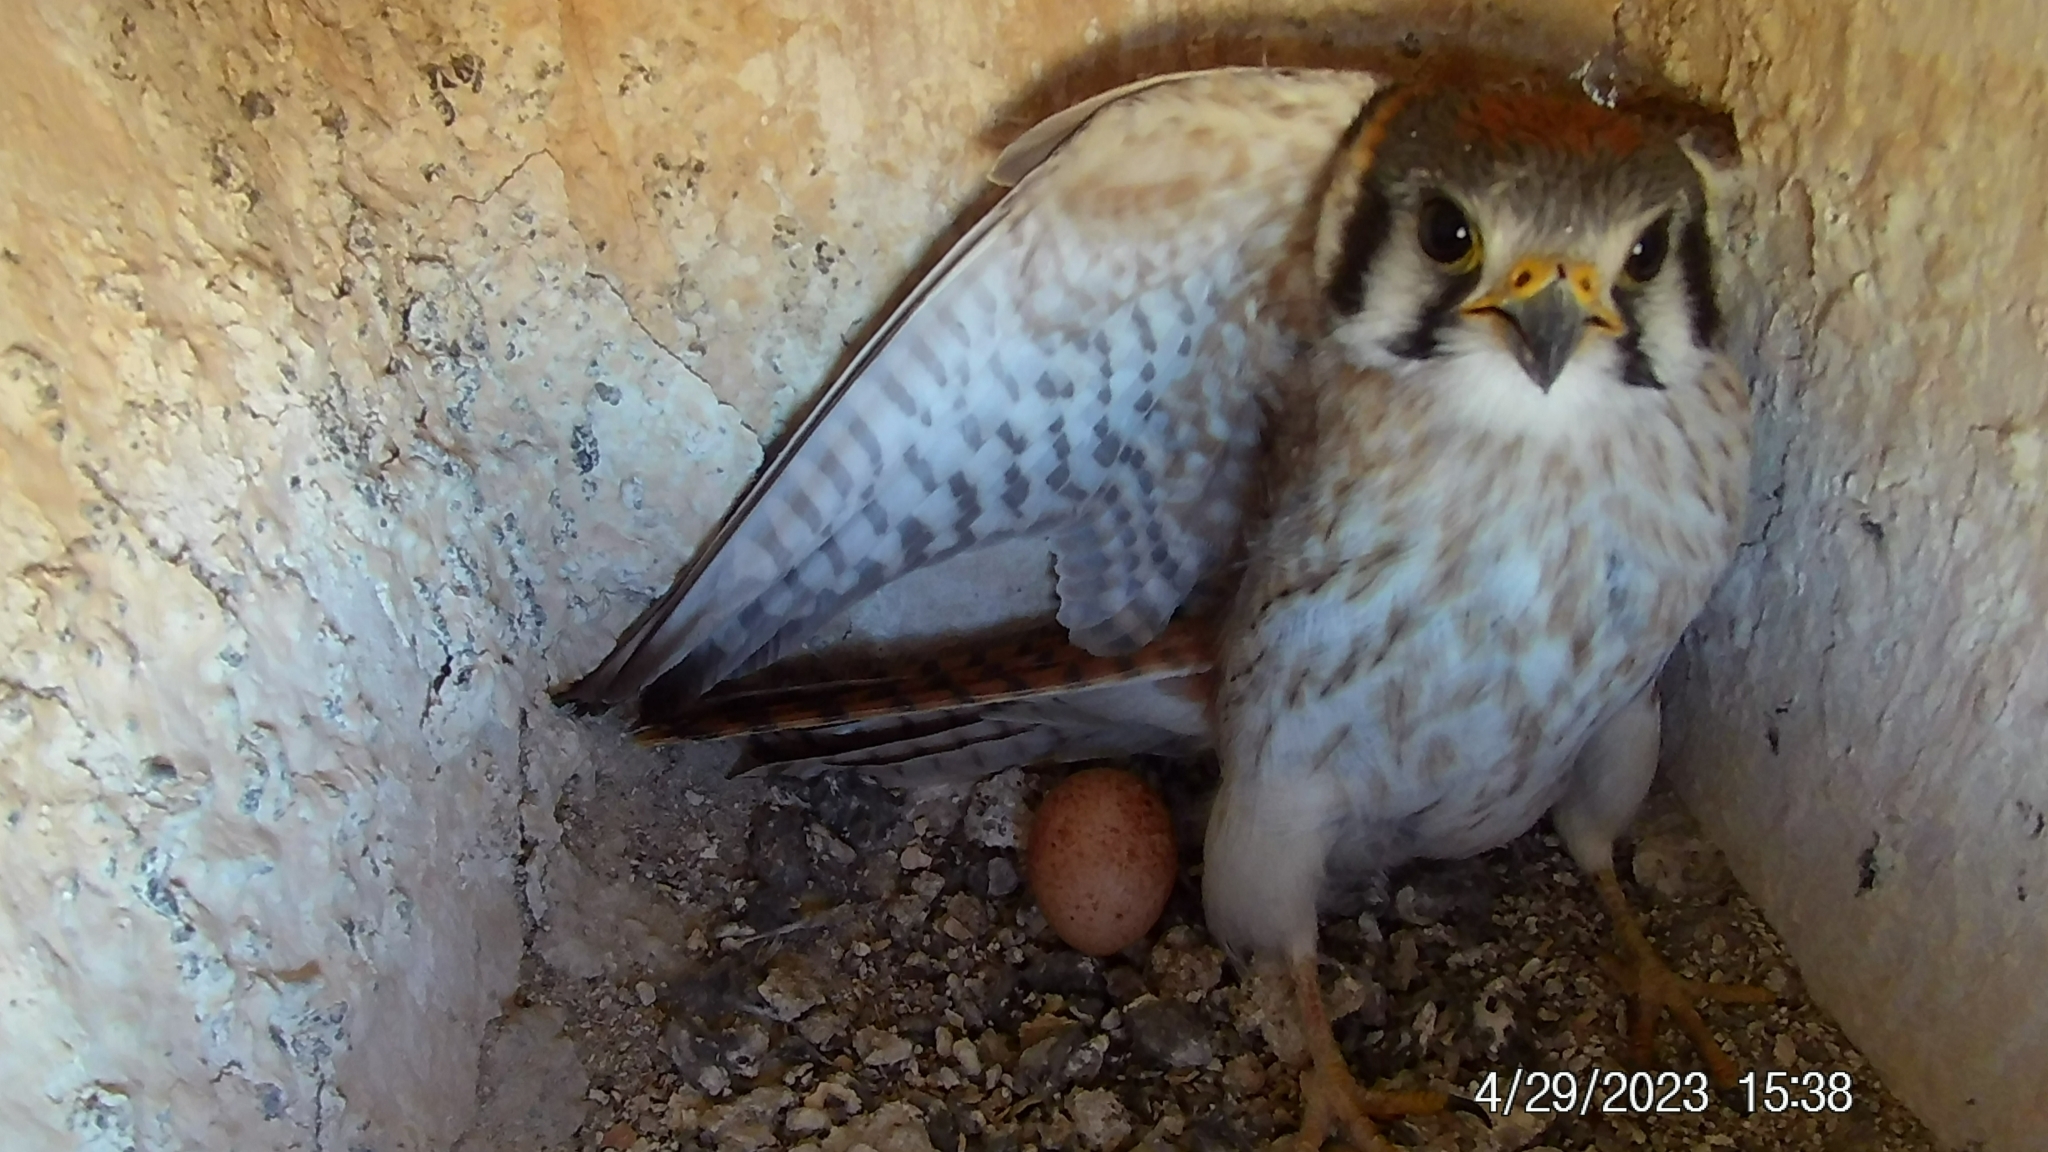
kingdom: Animalia
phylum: Chordata
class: Aves
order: Falconiformes
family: Falconidae
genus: Falco
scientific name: Falco sparverius
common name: American kestrel
